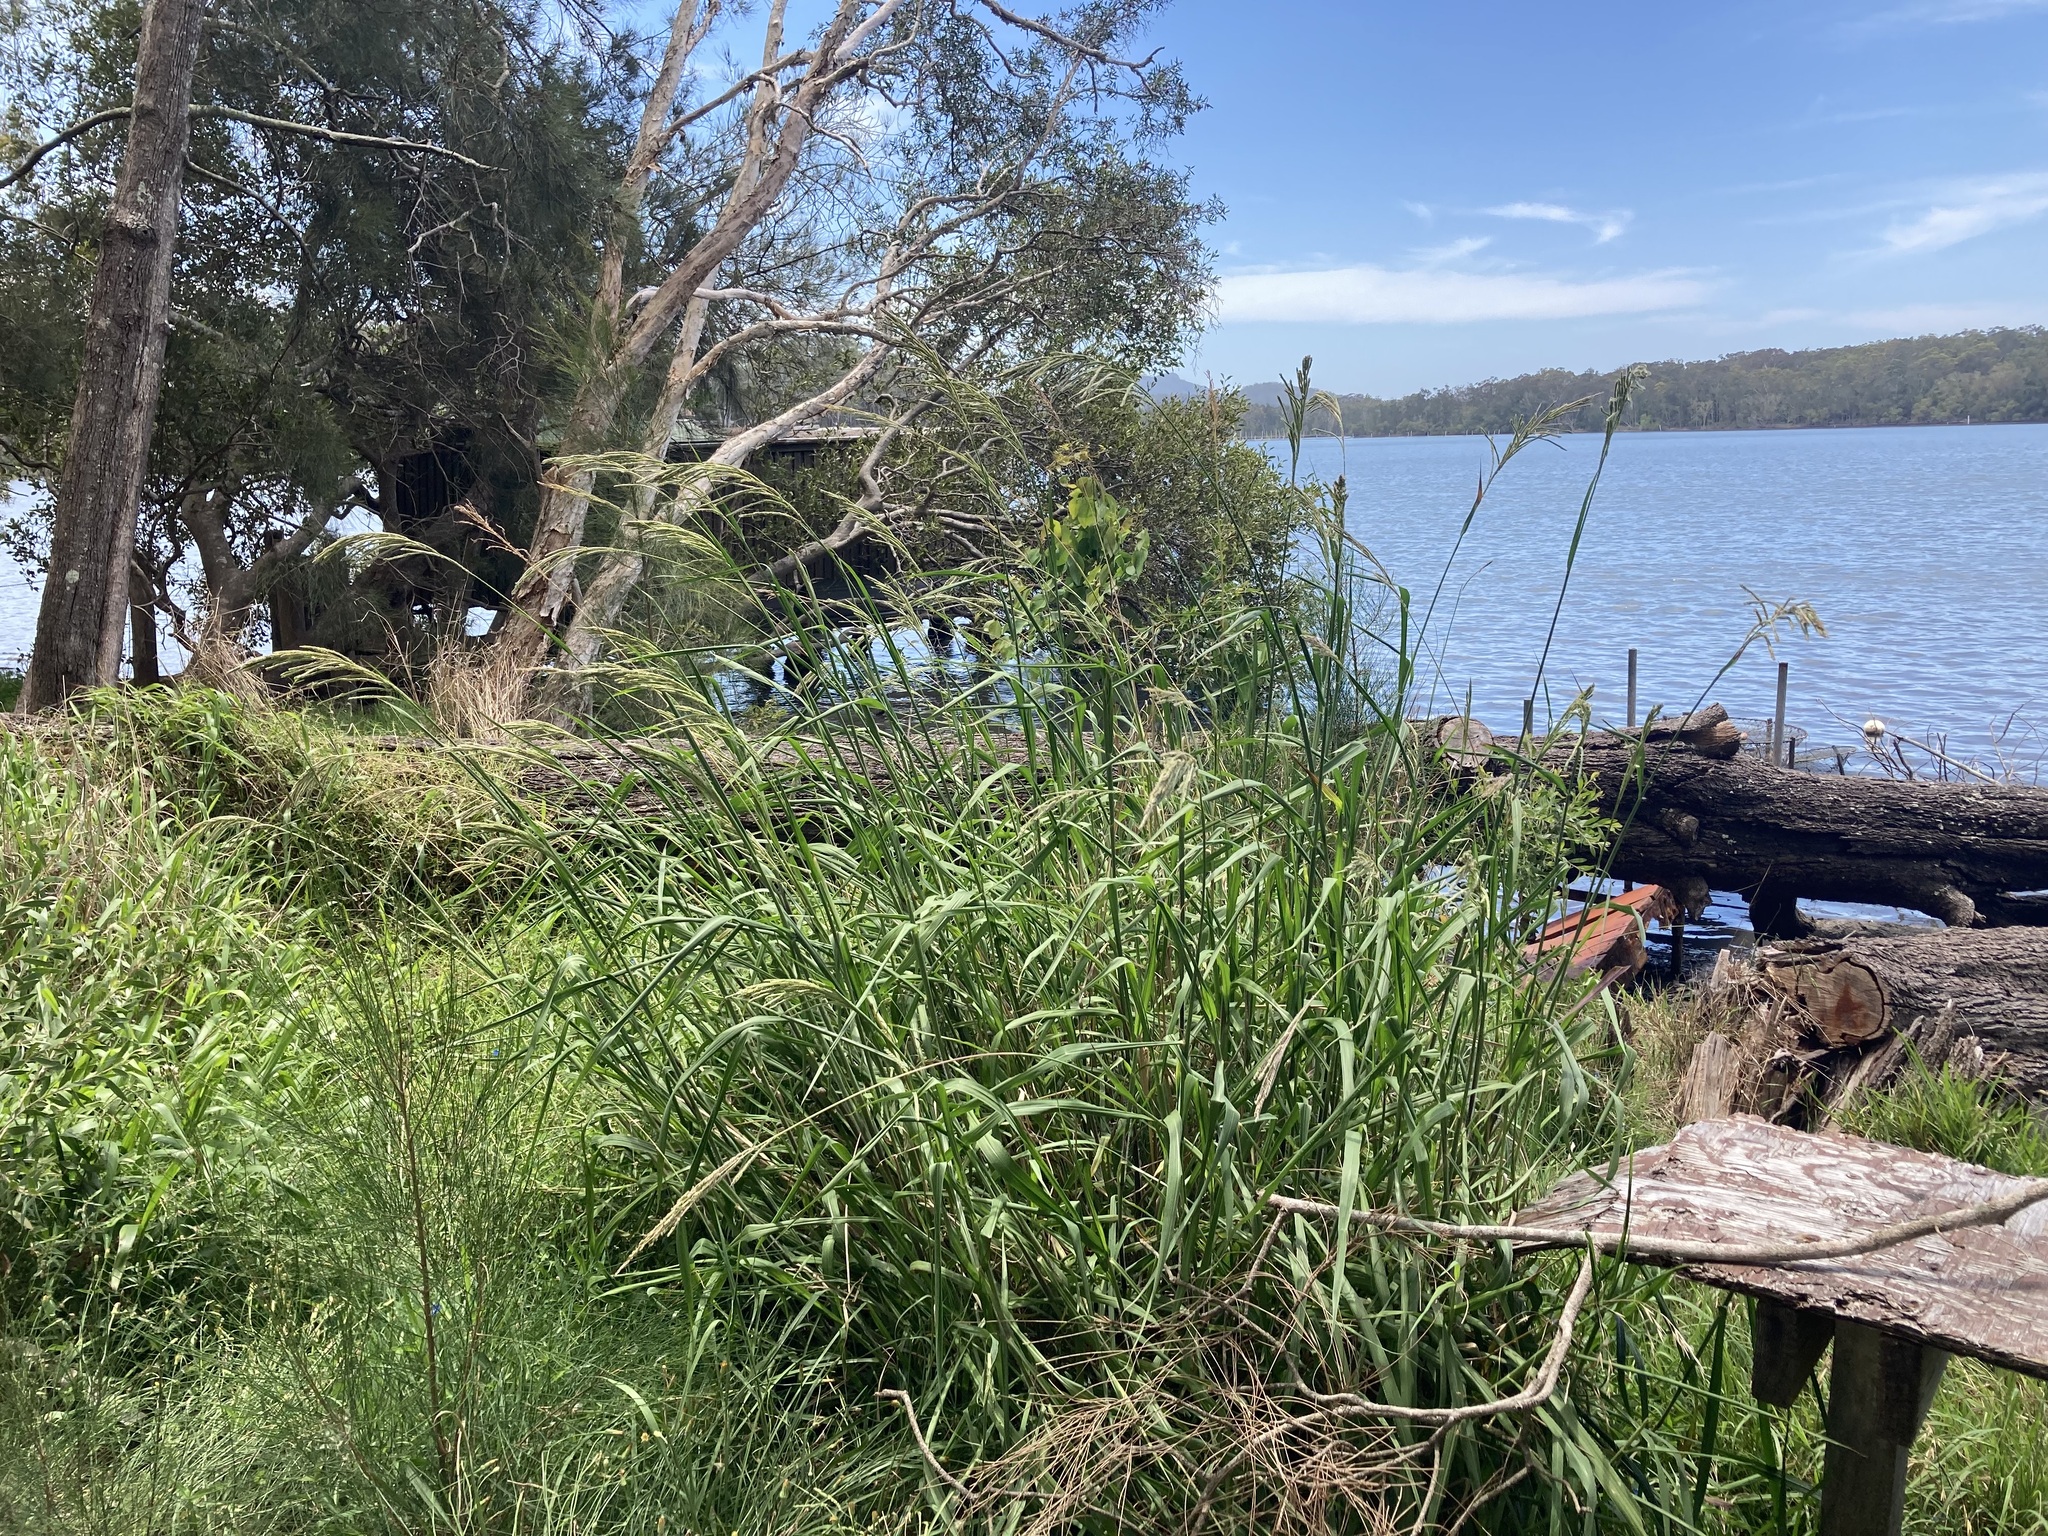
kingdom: Plantae
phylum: Tracheophyta
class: Liliopsida
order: Poales
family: Poaceae
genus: Paspalum
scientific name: Paspalum urvillei
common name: Vasey's grass
